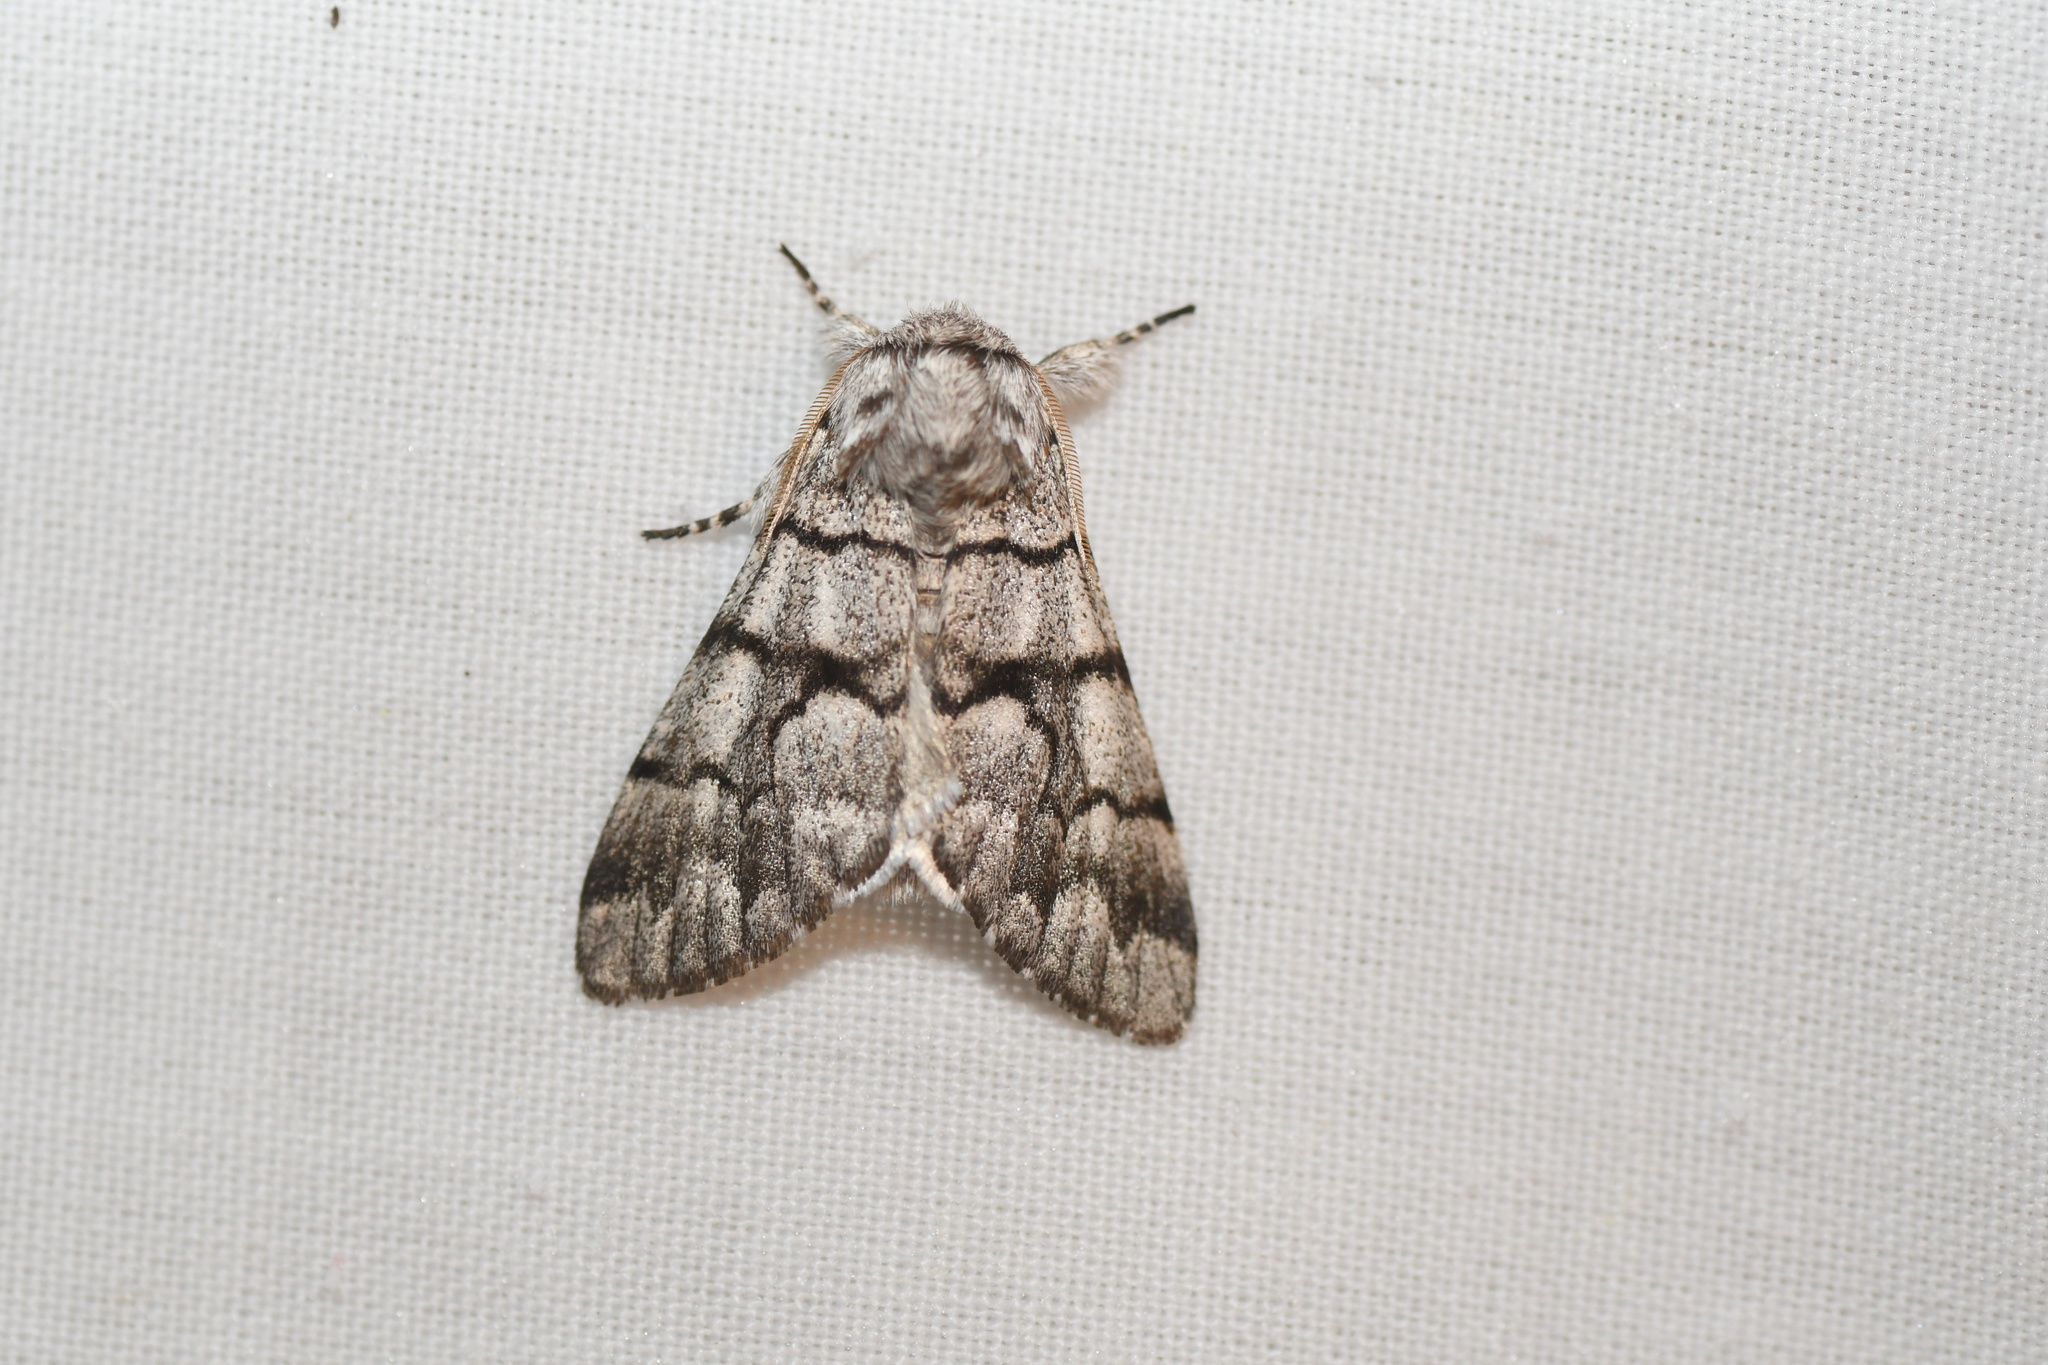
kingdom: Animalia
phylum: Arthropoda
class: Insecta
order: Lepidoptera
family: Noctuidae
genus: Panthea
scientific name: Panthea furcilla
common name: Eastern panthea moth
